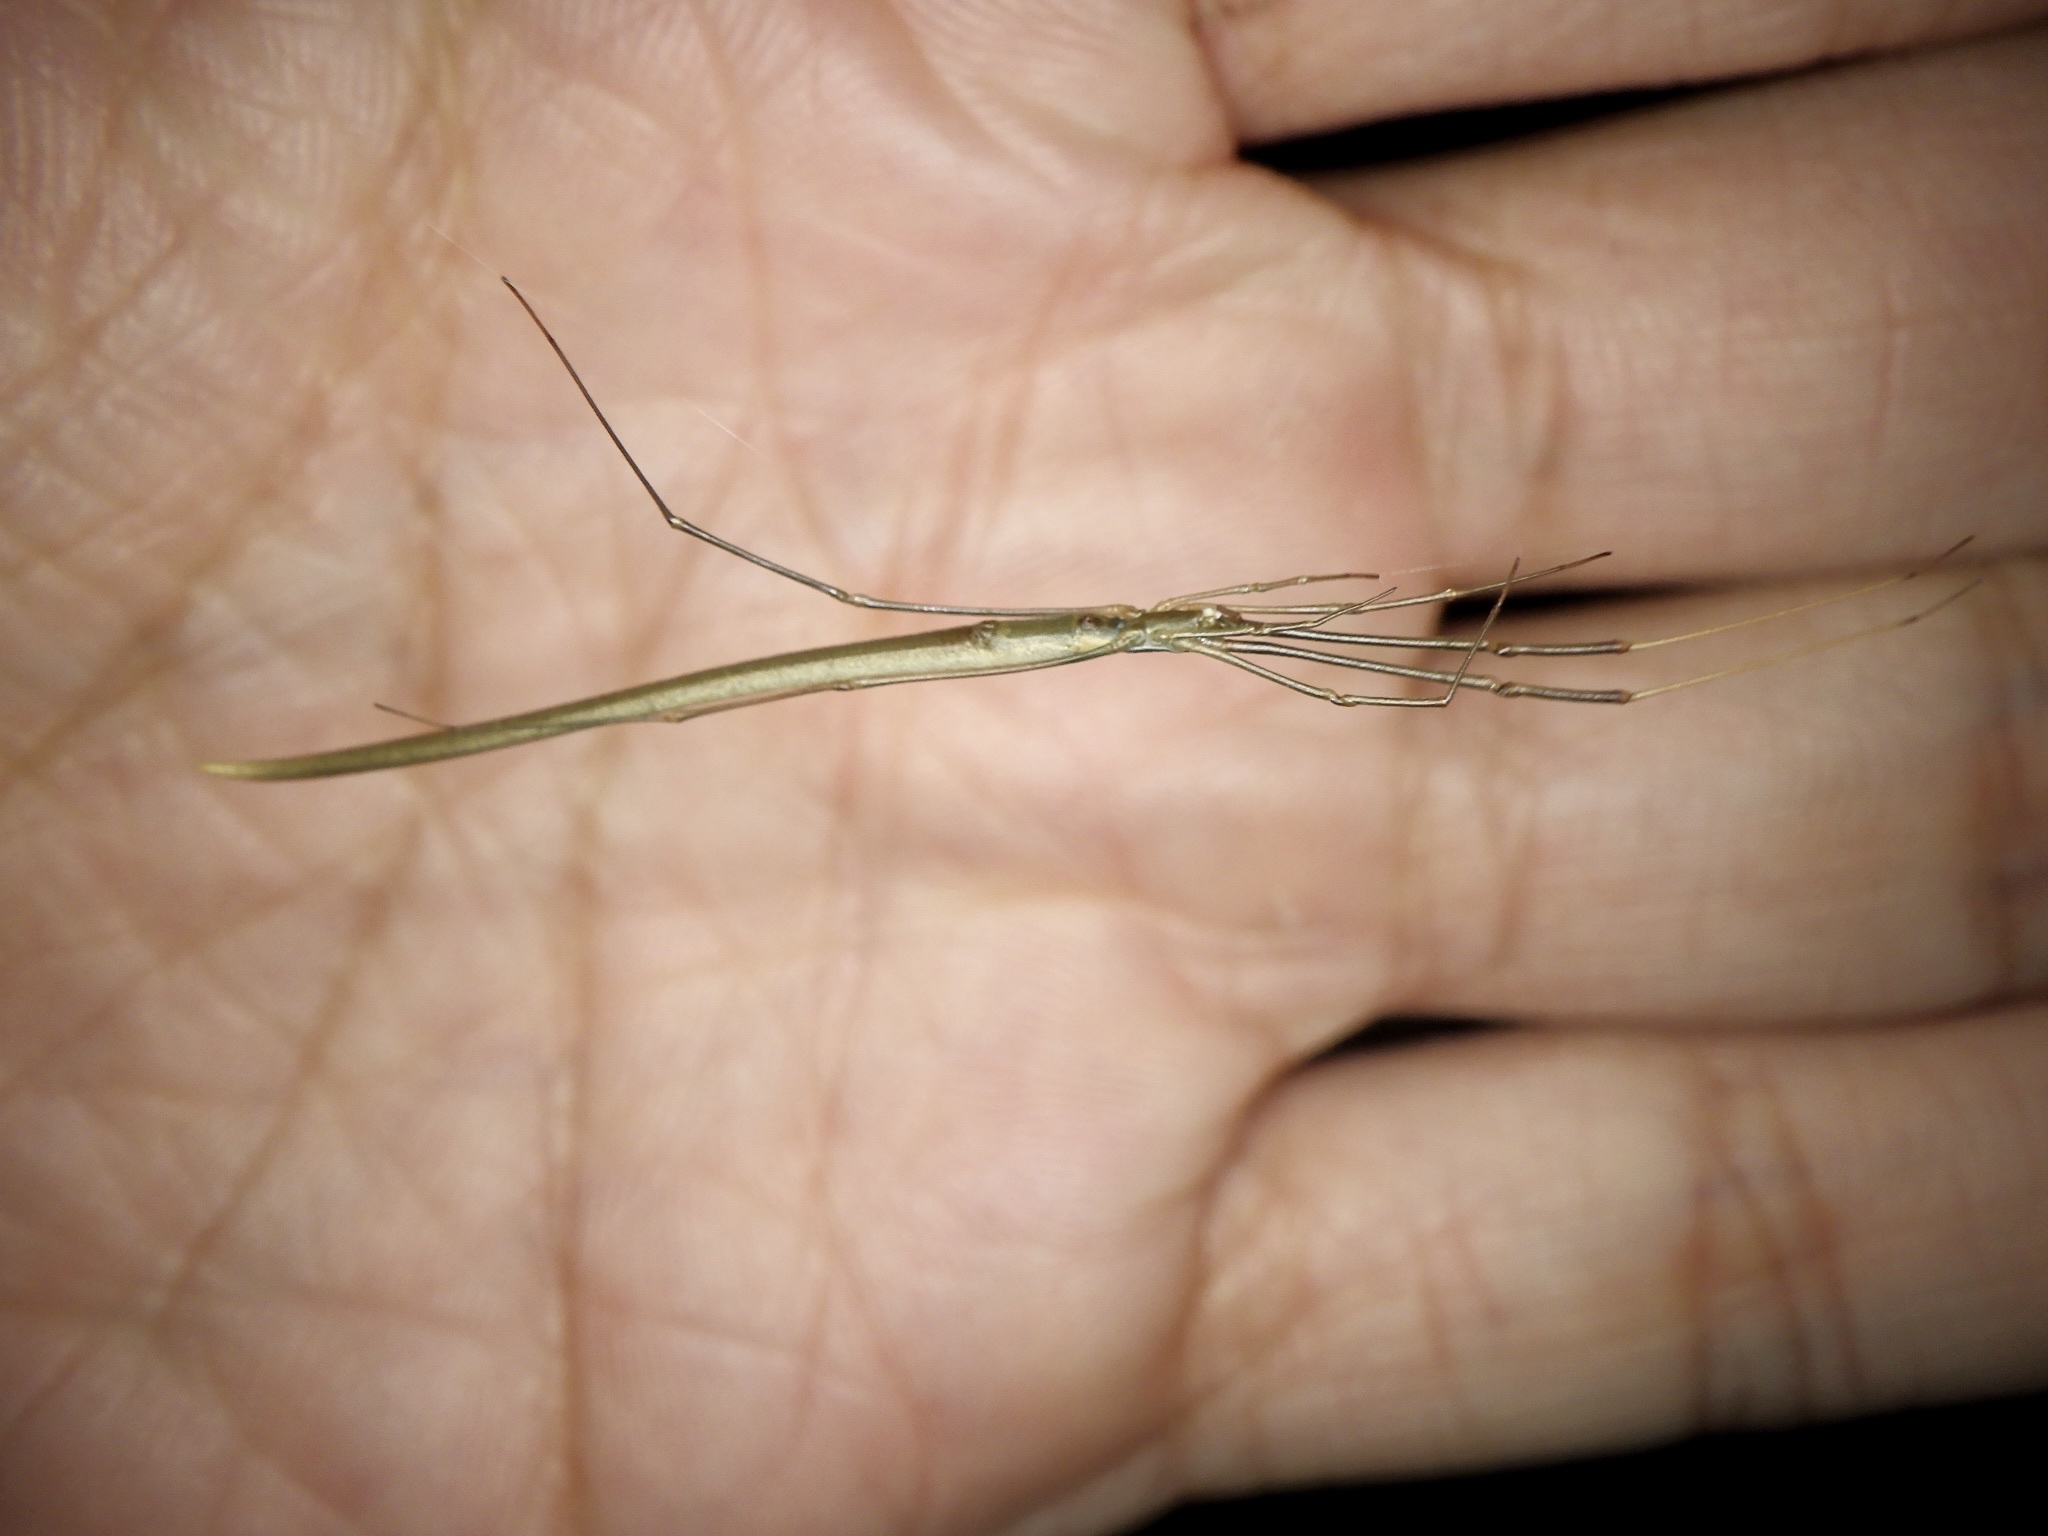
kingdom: Animalia
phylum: Arthropoda
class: Arachnida
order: Araneae
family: Theridiidae
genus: Ariamnes
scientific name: Ariamnes cylindrogaster
